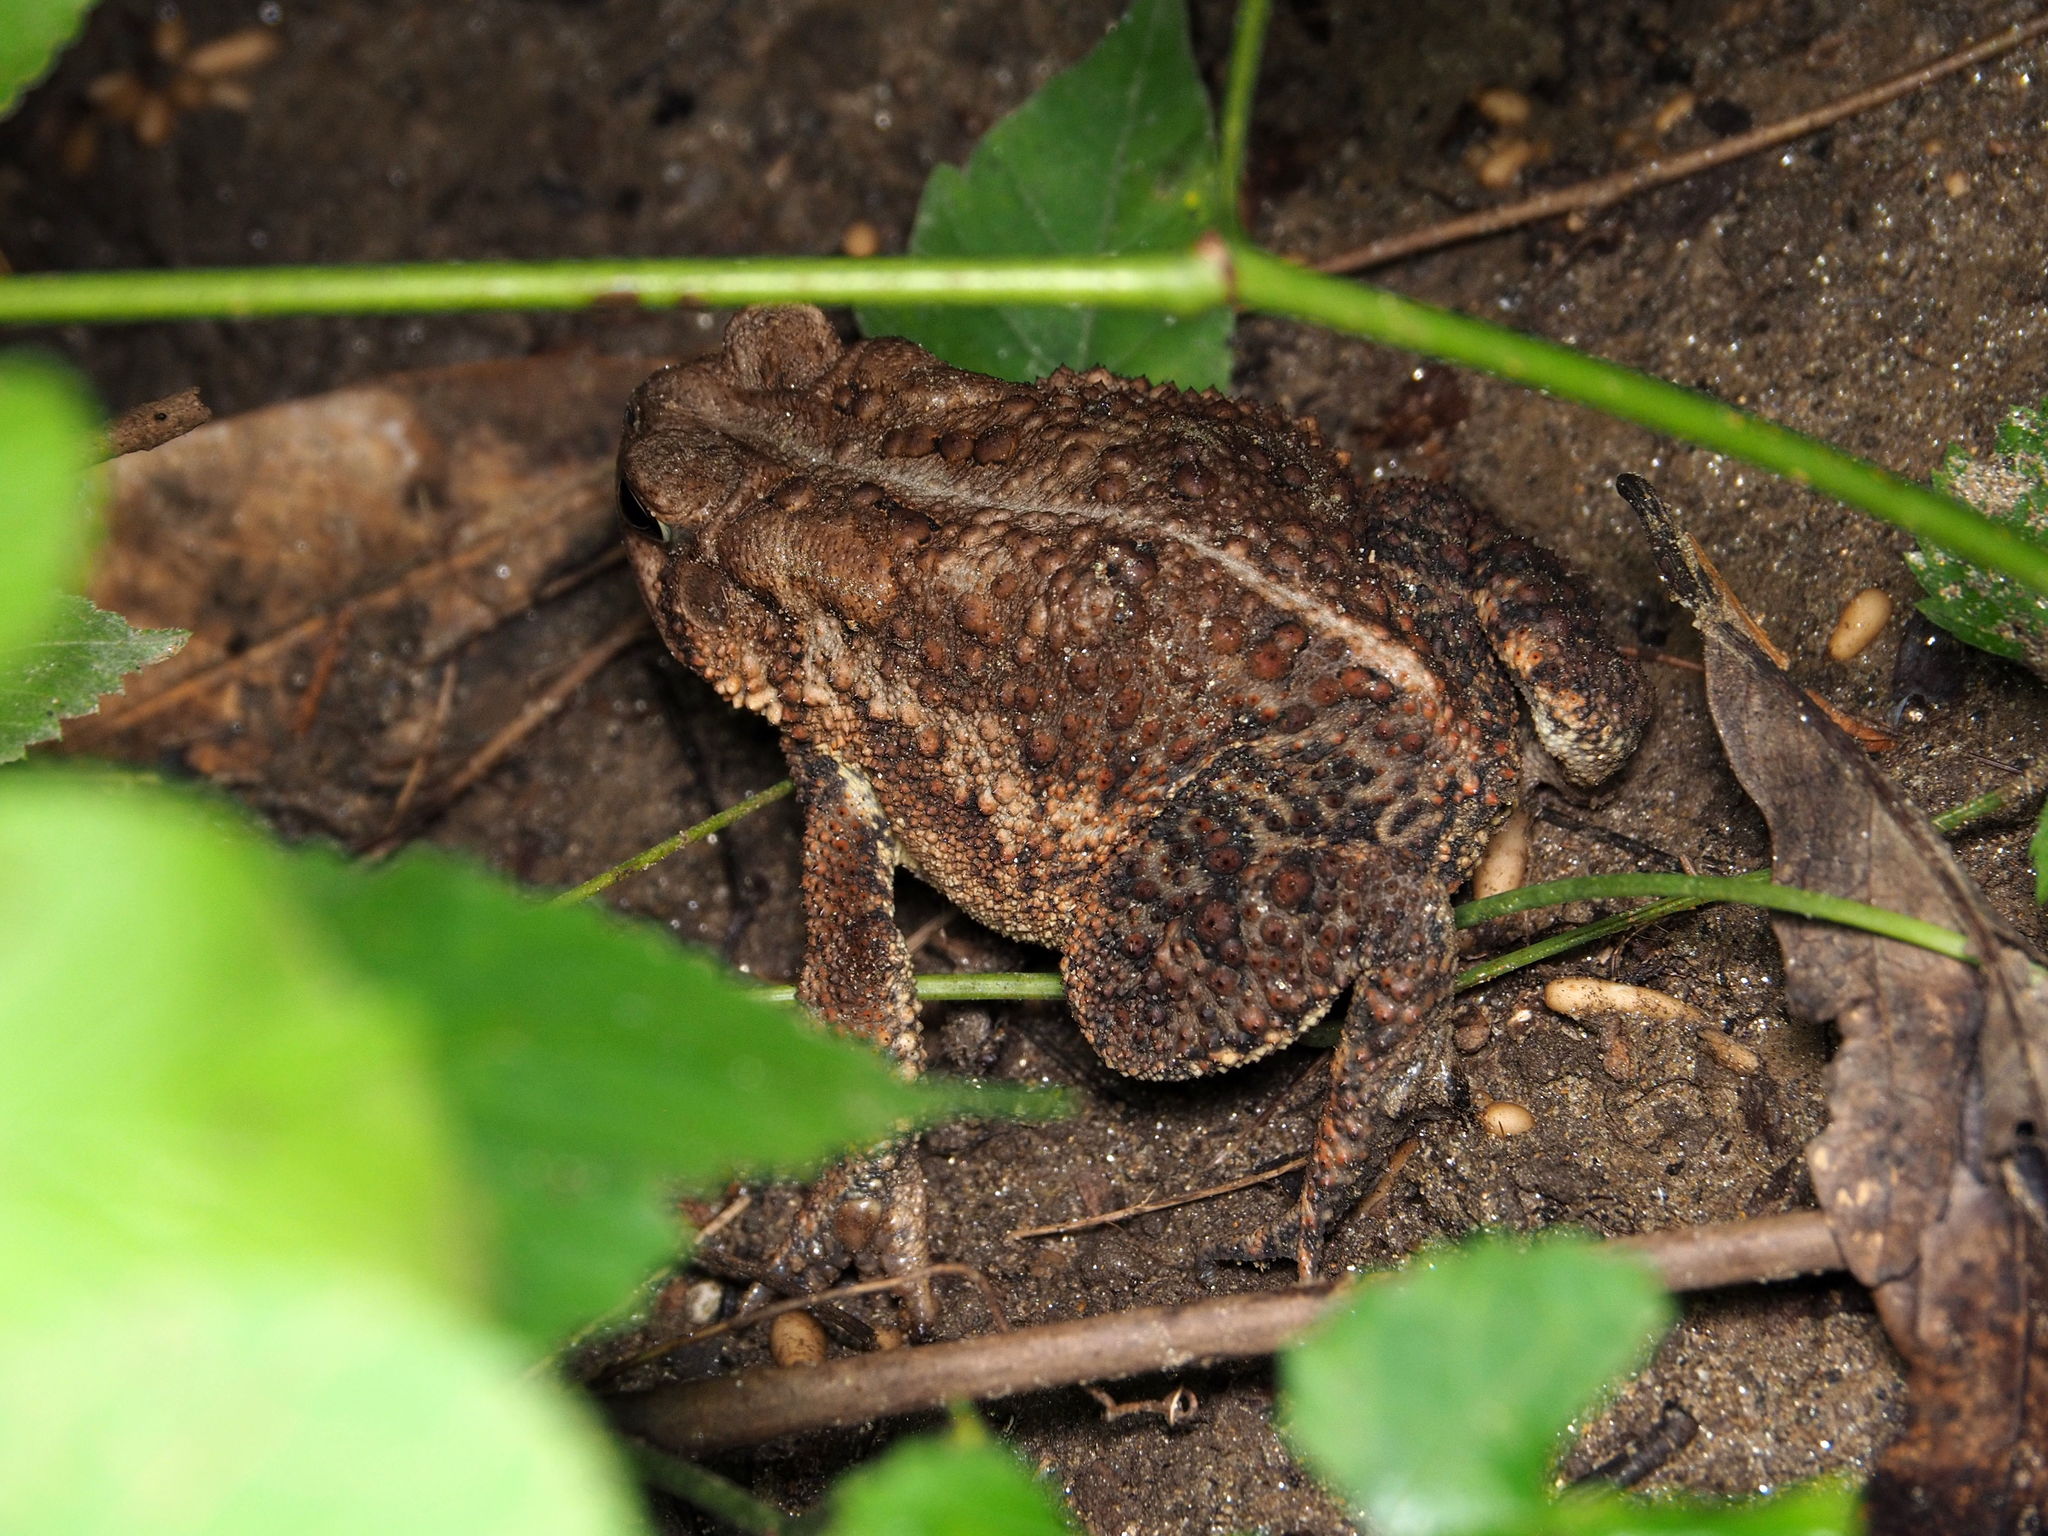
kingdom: Animalia
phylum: Chordata
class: Amphibia
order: Anura
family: Bufonidae
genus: Anaxyrus
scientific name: Anaxyrus americanus
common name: American toad
